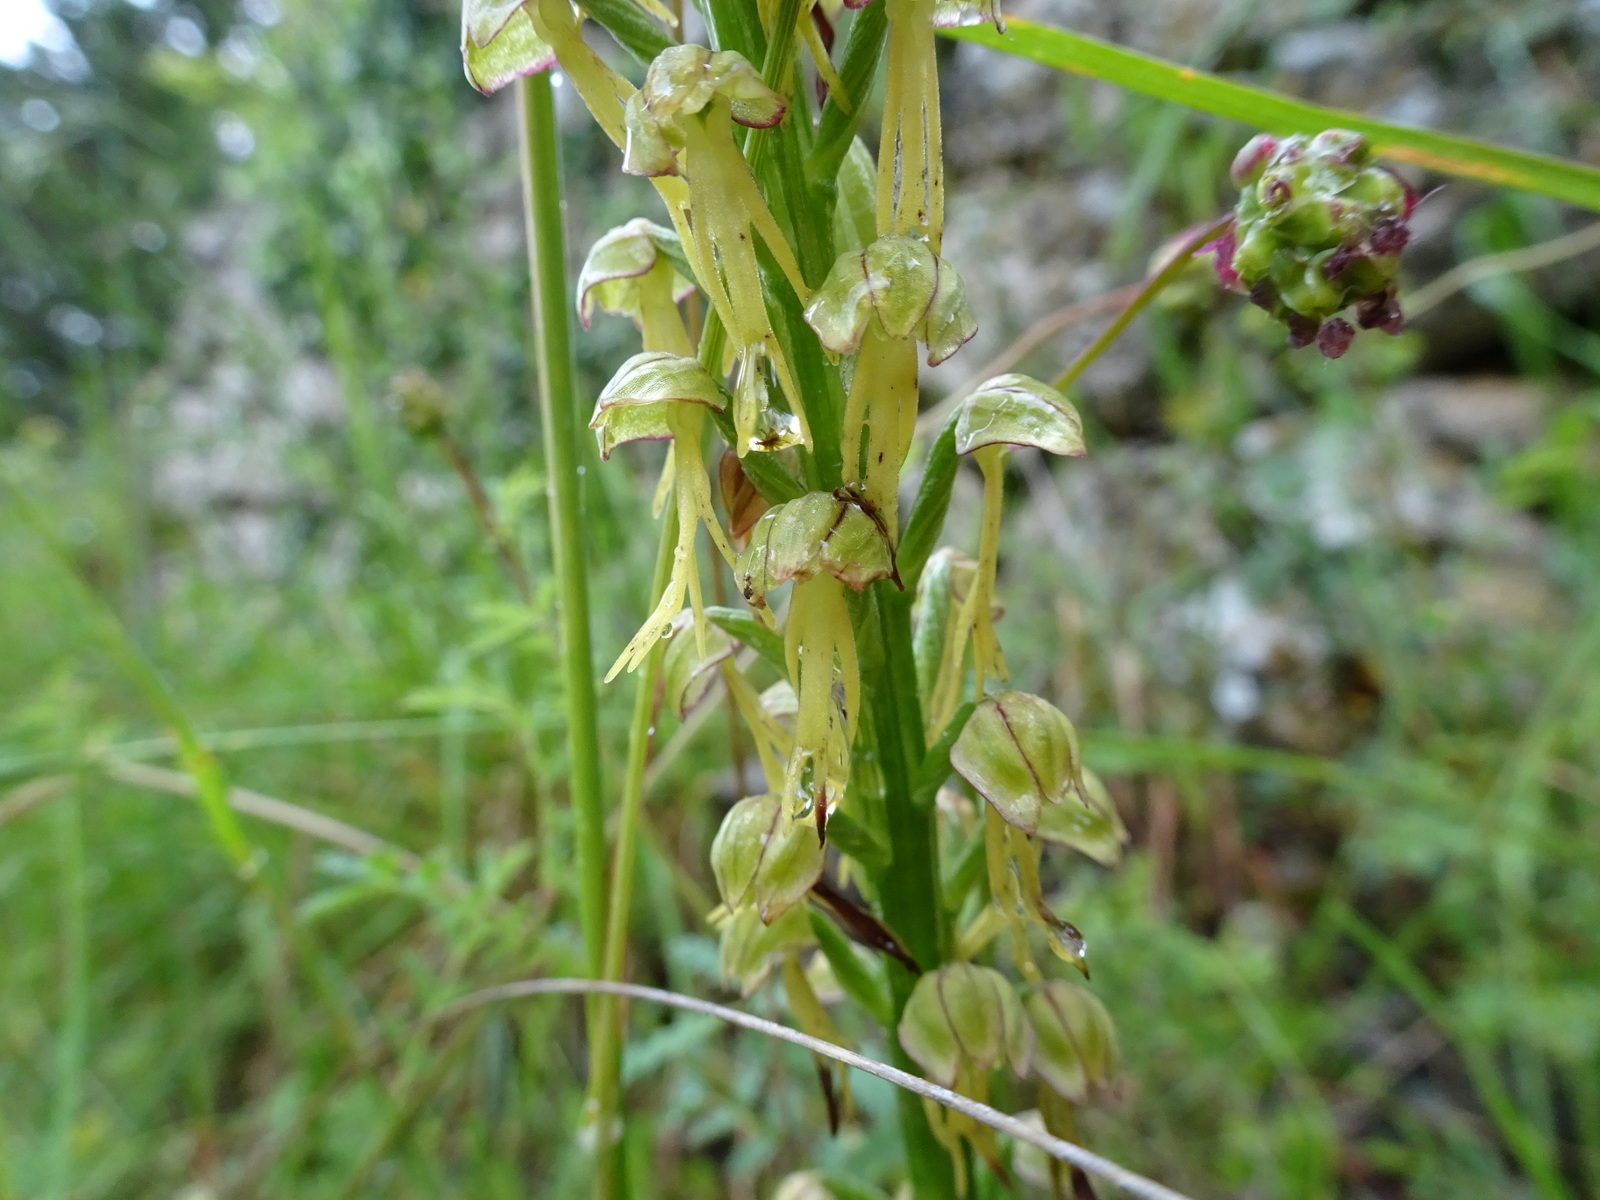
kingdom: Plantae
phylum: Tracheophyta
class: Liliopsida
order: Asparagales
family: Orchidaceae
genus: Orchis
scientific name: Orchis anthropophora
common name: Man orchid
